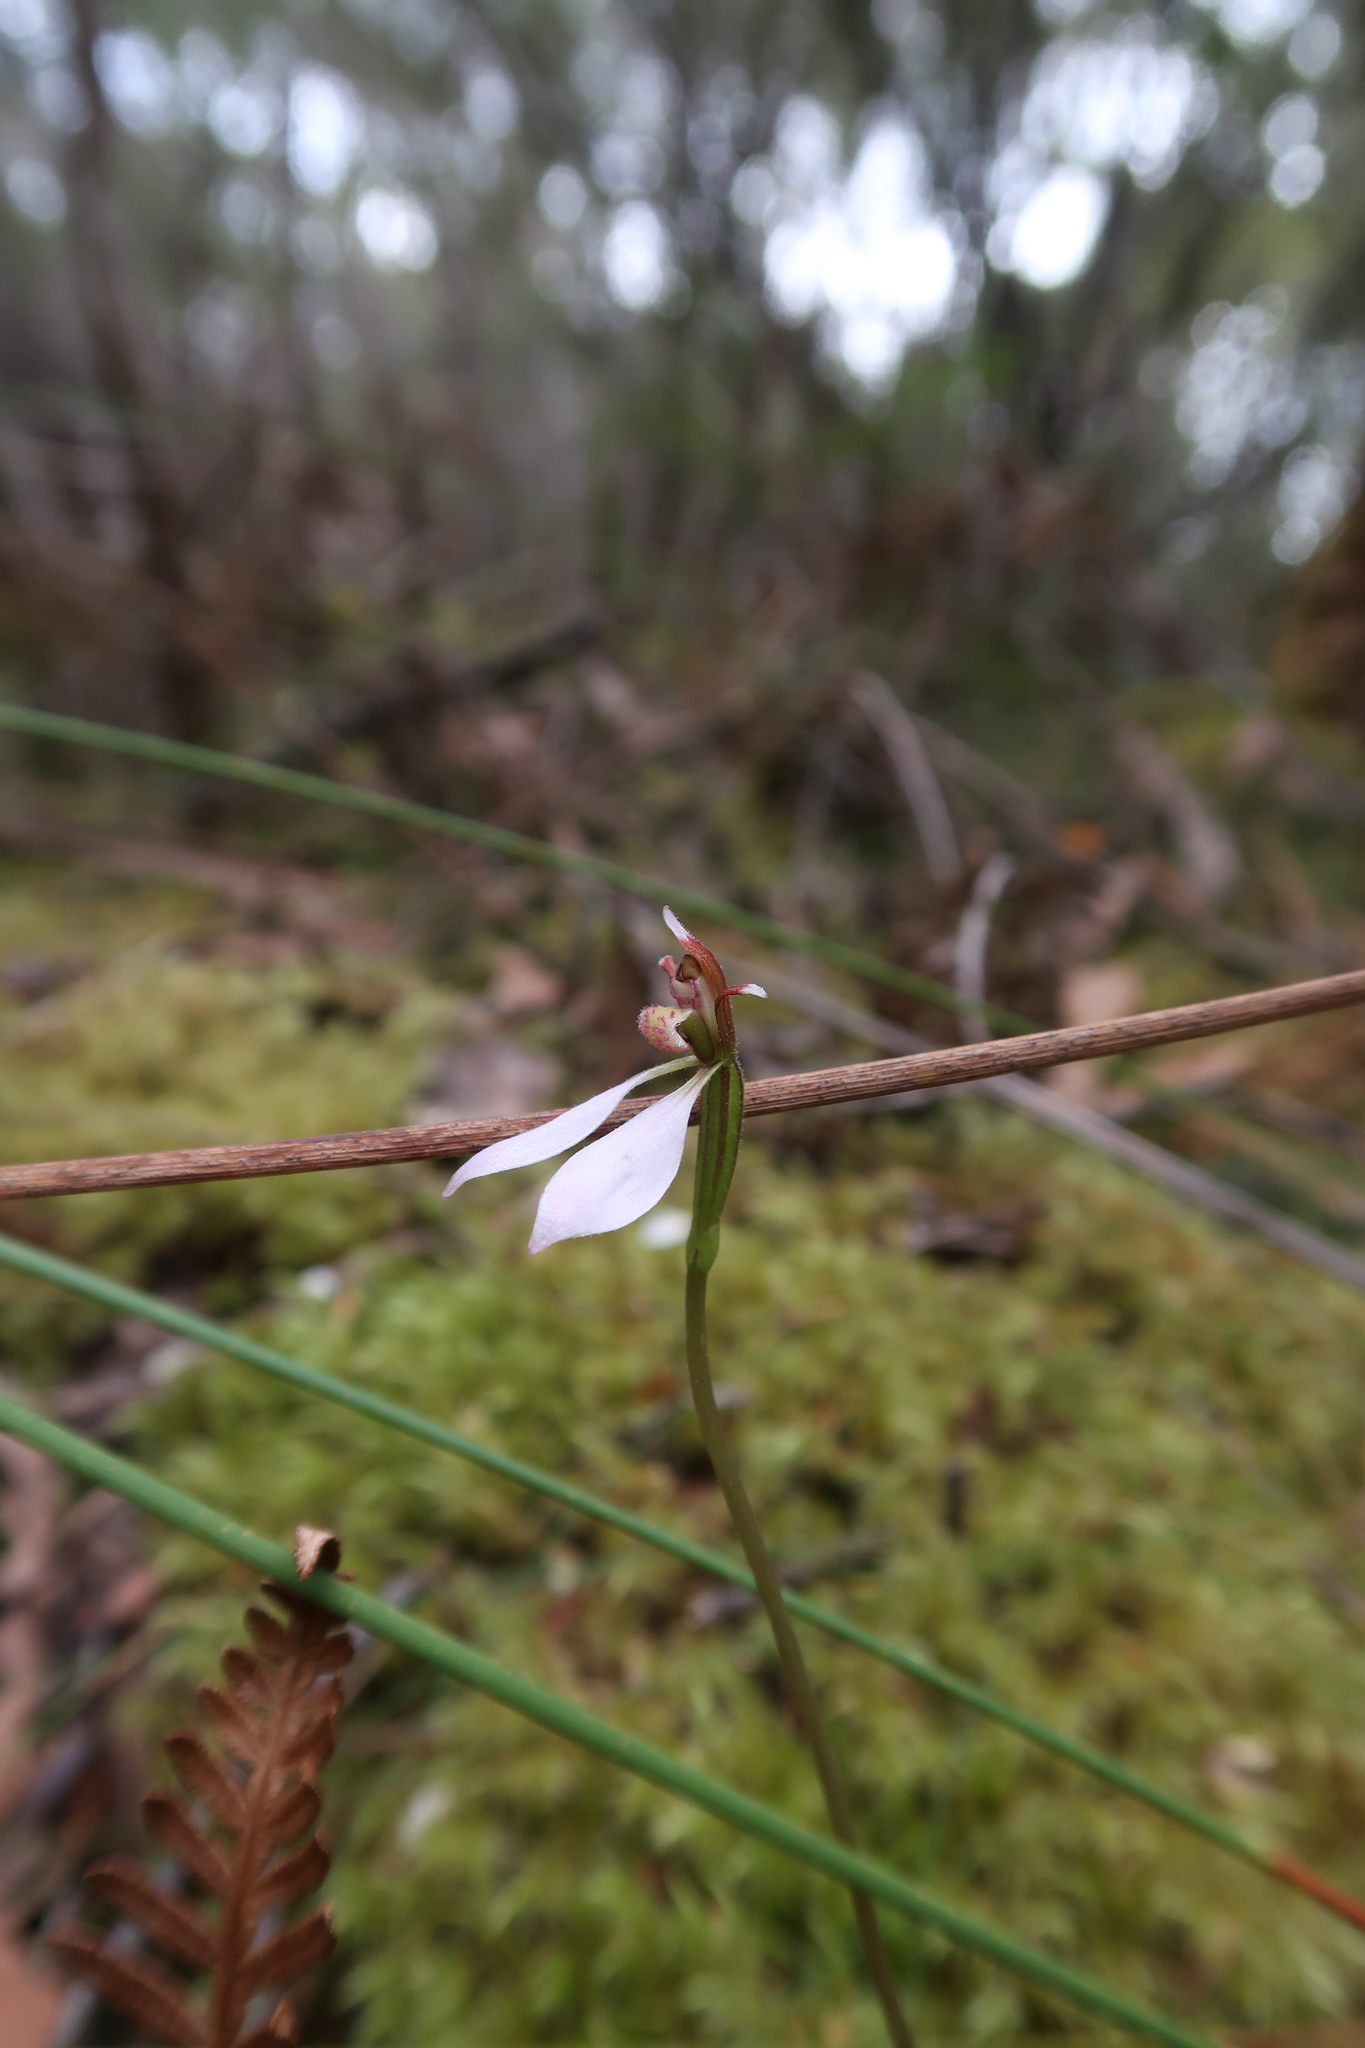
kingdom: Plantae
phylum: Tracheophyta
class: Liliopsida
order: Asparagales
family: Orchidaceae
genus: Eriochilus
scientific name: Eriochilus cucullatus
